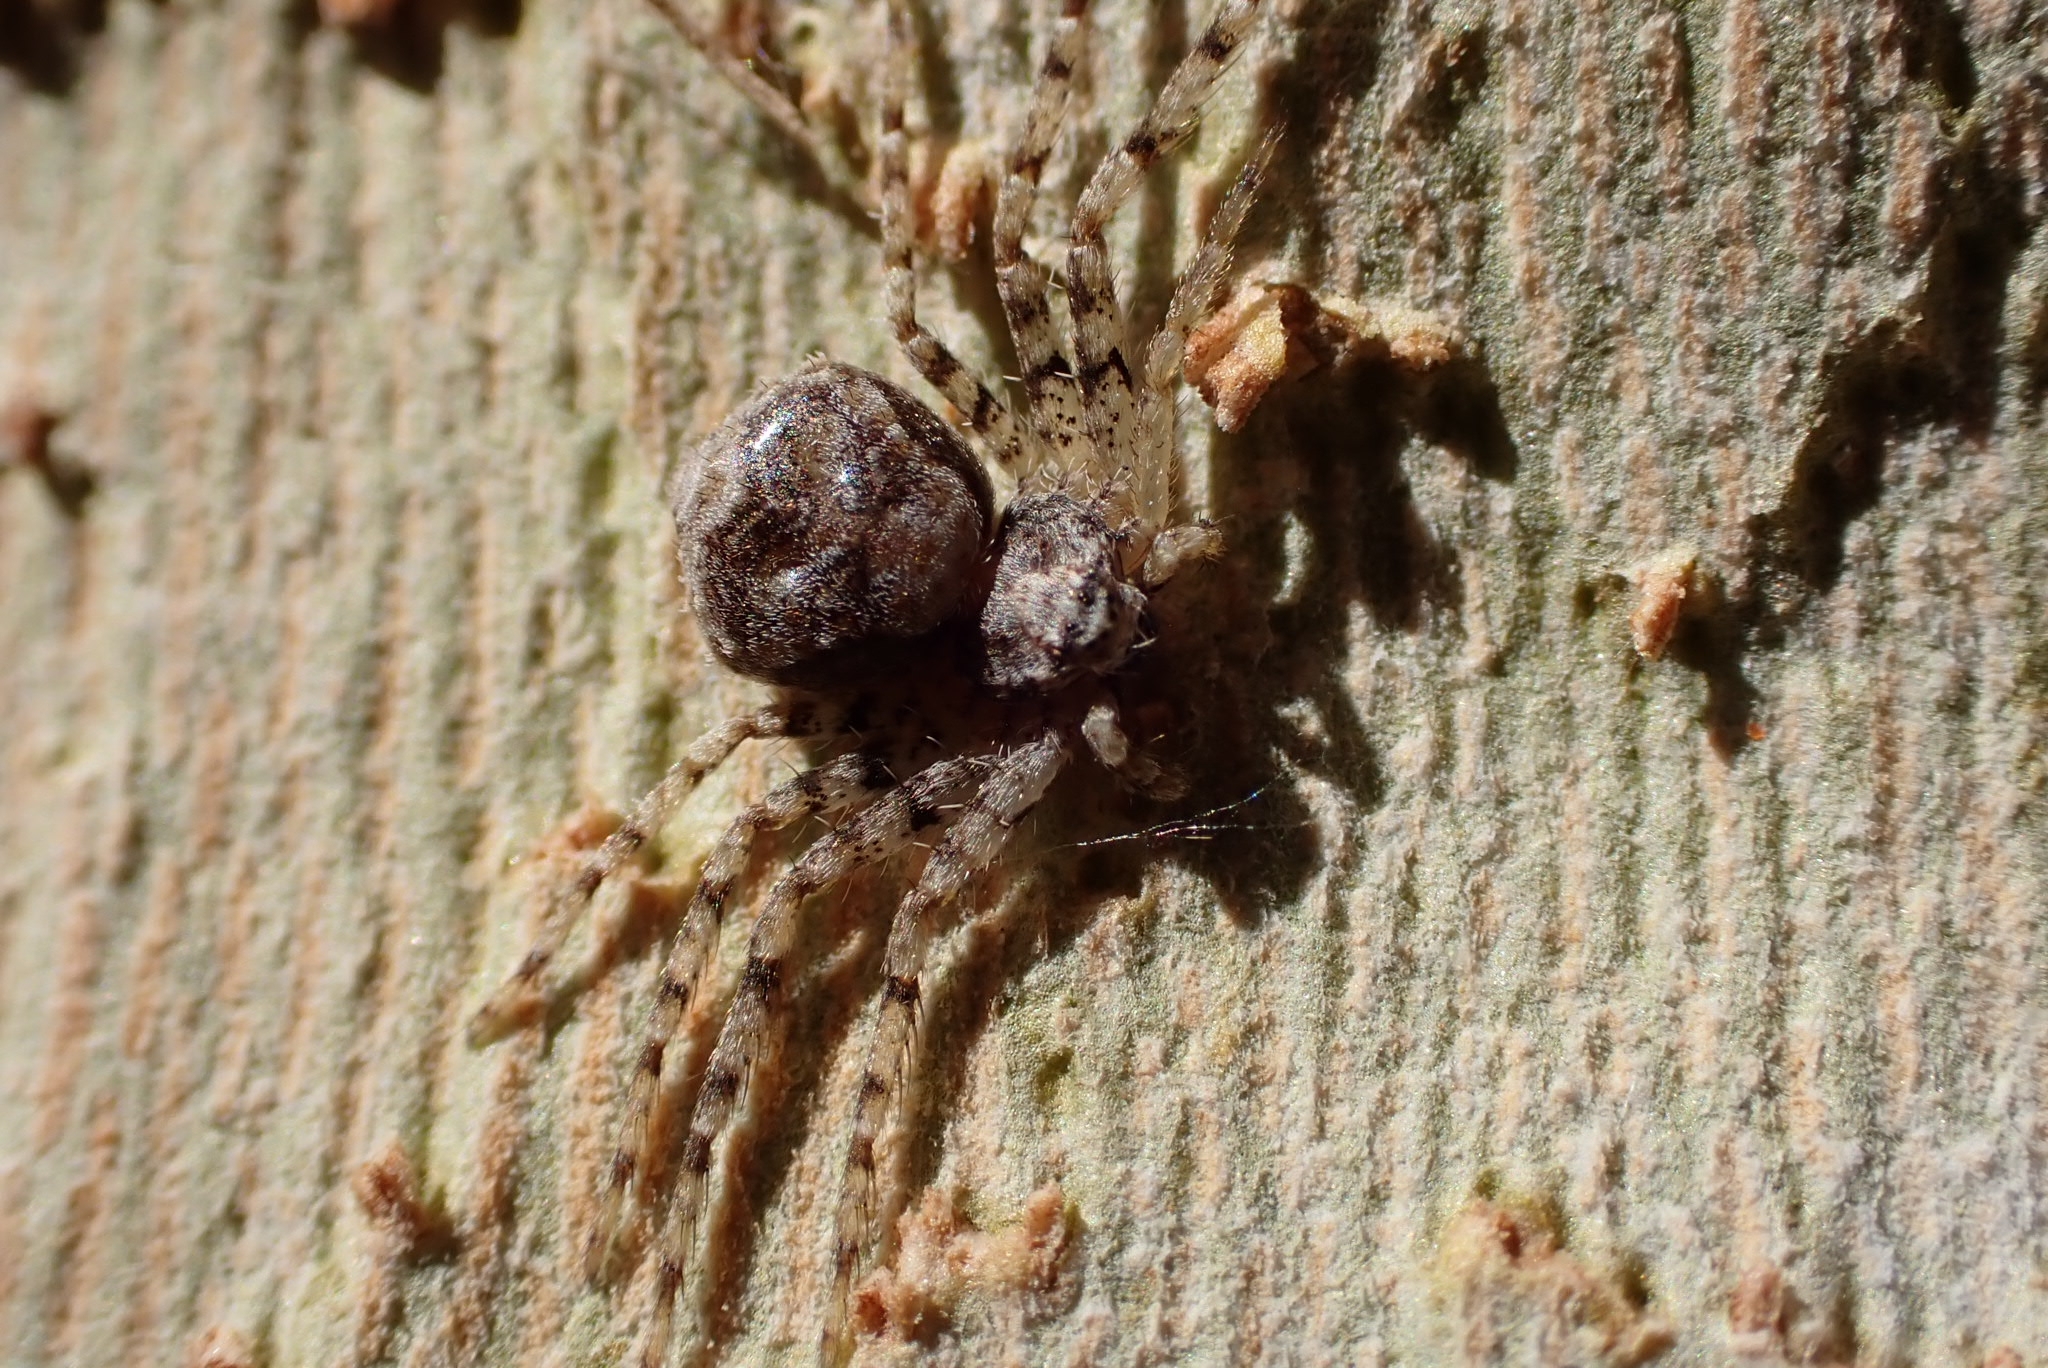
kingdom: Animalia
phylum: Arthropoda
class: Arachnida
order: Araneae
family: Philodromidae
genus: Philodromus
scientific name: Philodromus
